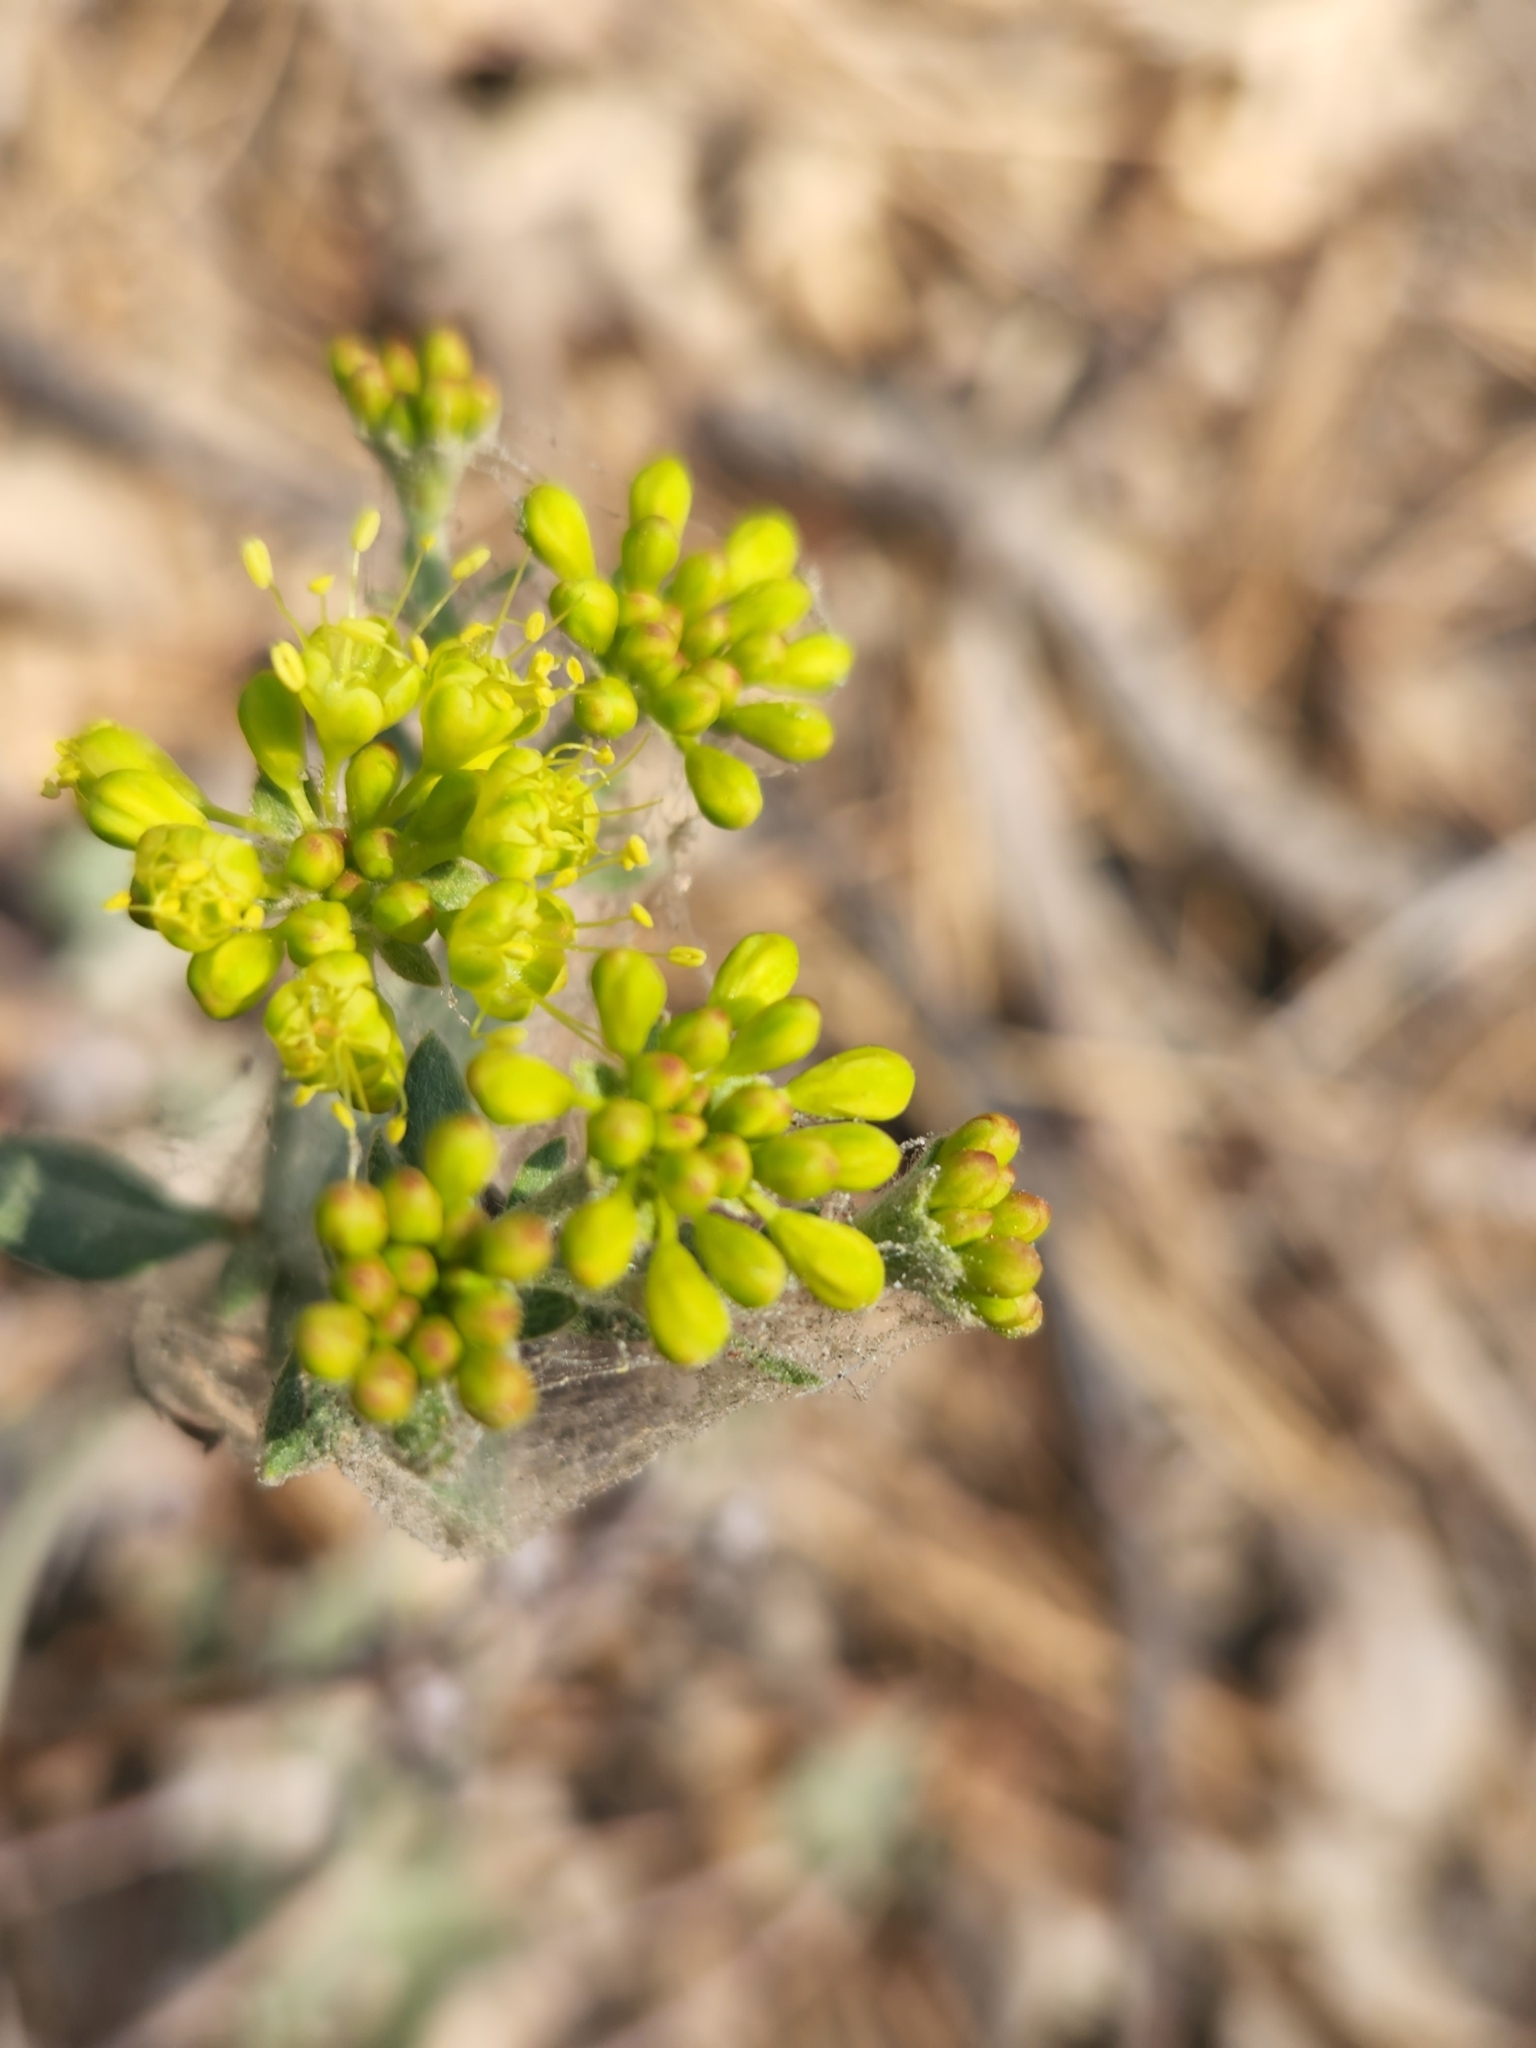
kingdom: Plantae
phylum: Tracheophyta
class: Magnoliopsida
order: Caryophyllales
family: Polygonaceae
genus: Eriogonum
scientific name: Eriogonum umbellatum
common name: Sulfur-buckwheat
